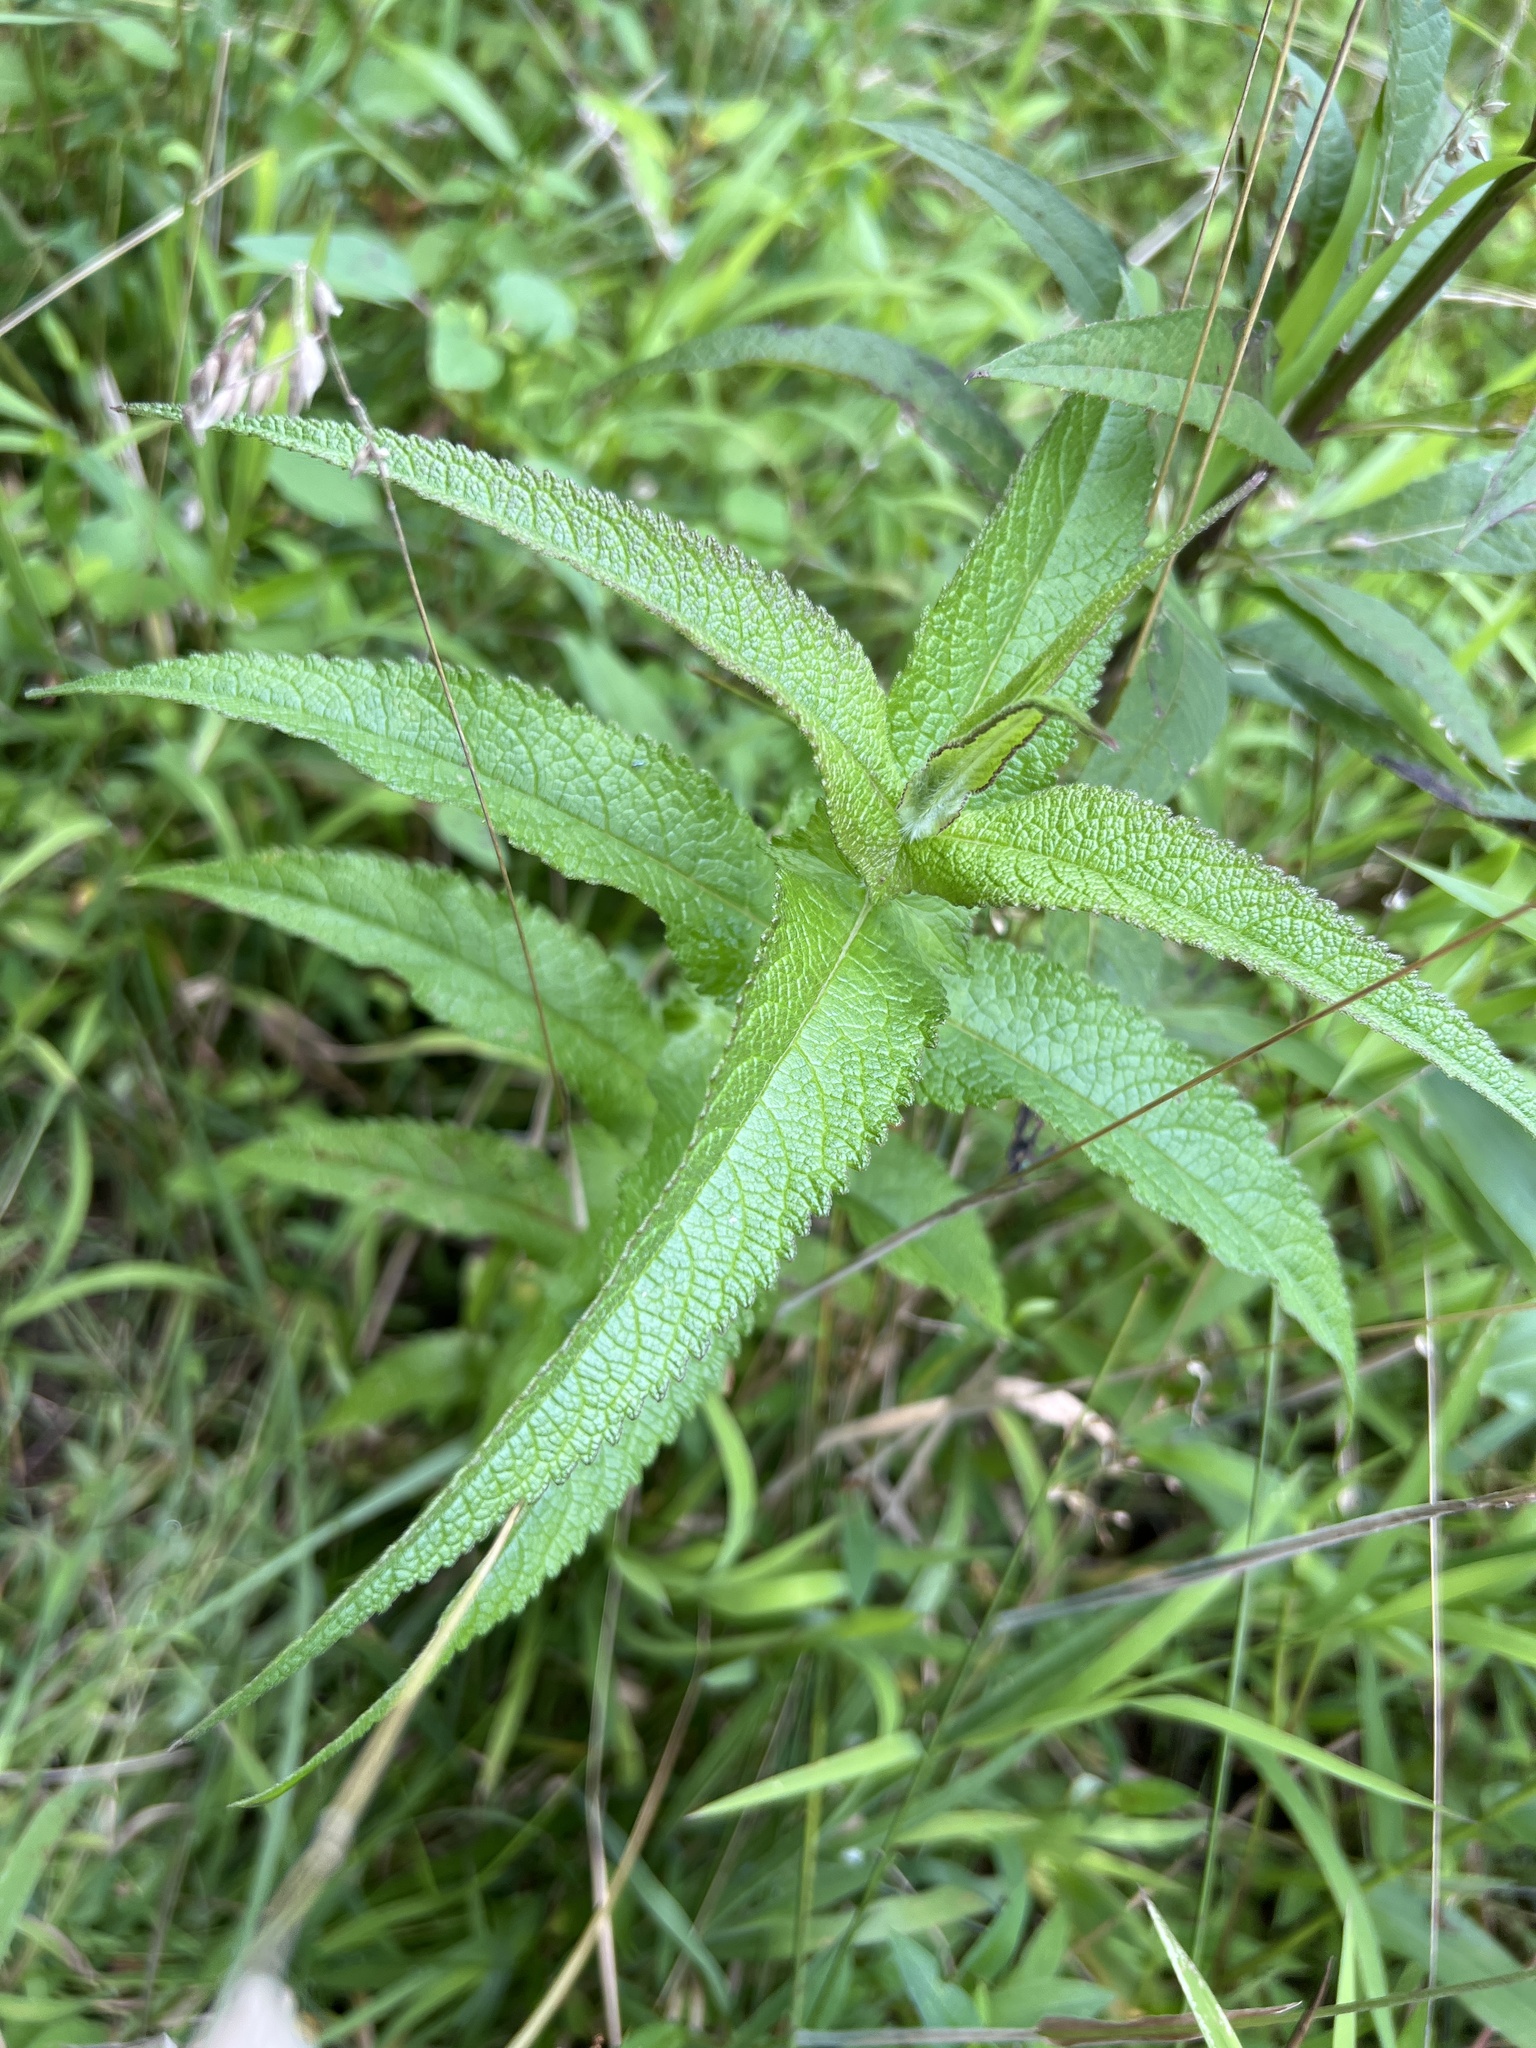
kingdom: Plantae
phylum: Tracheophyta
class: Magnoliopsida
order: Asterales
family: Asteraceae
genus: Eupatorium
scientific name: Eupatorium perfoliatum
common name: Boneset
